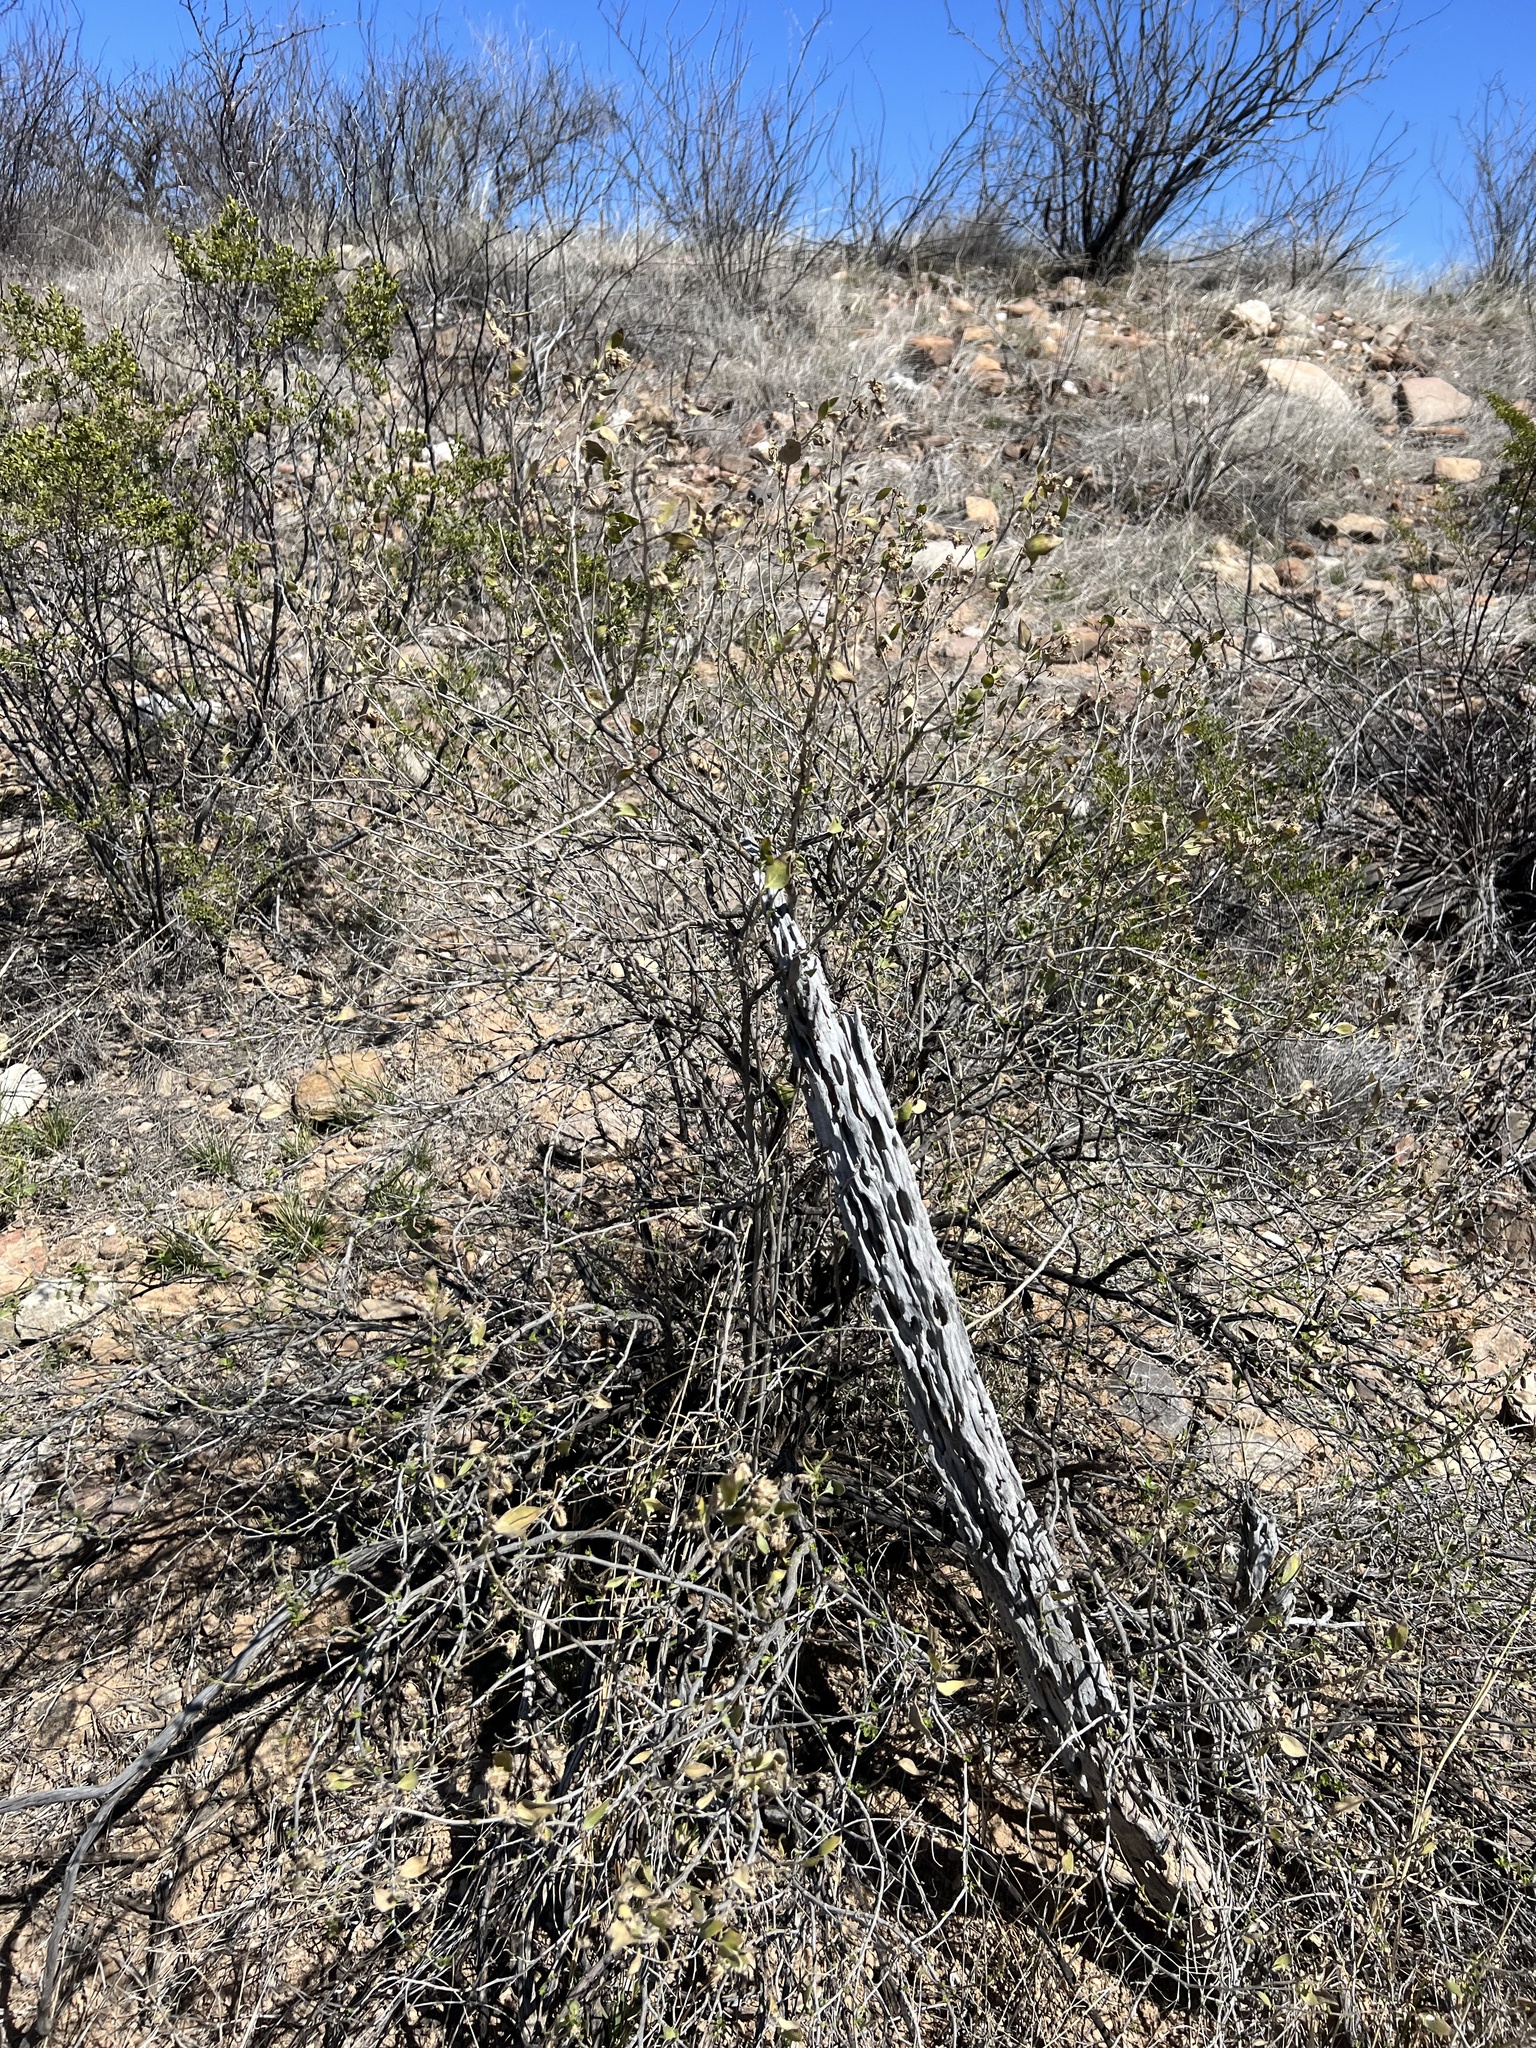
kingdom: Plantae
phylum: Tracheophyta
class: Magnoliopsida
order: Asterales
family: Asteraceae
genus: Flourensia
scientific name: Flourensia cernua
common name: Varnishbush
